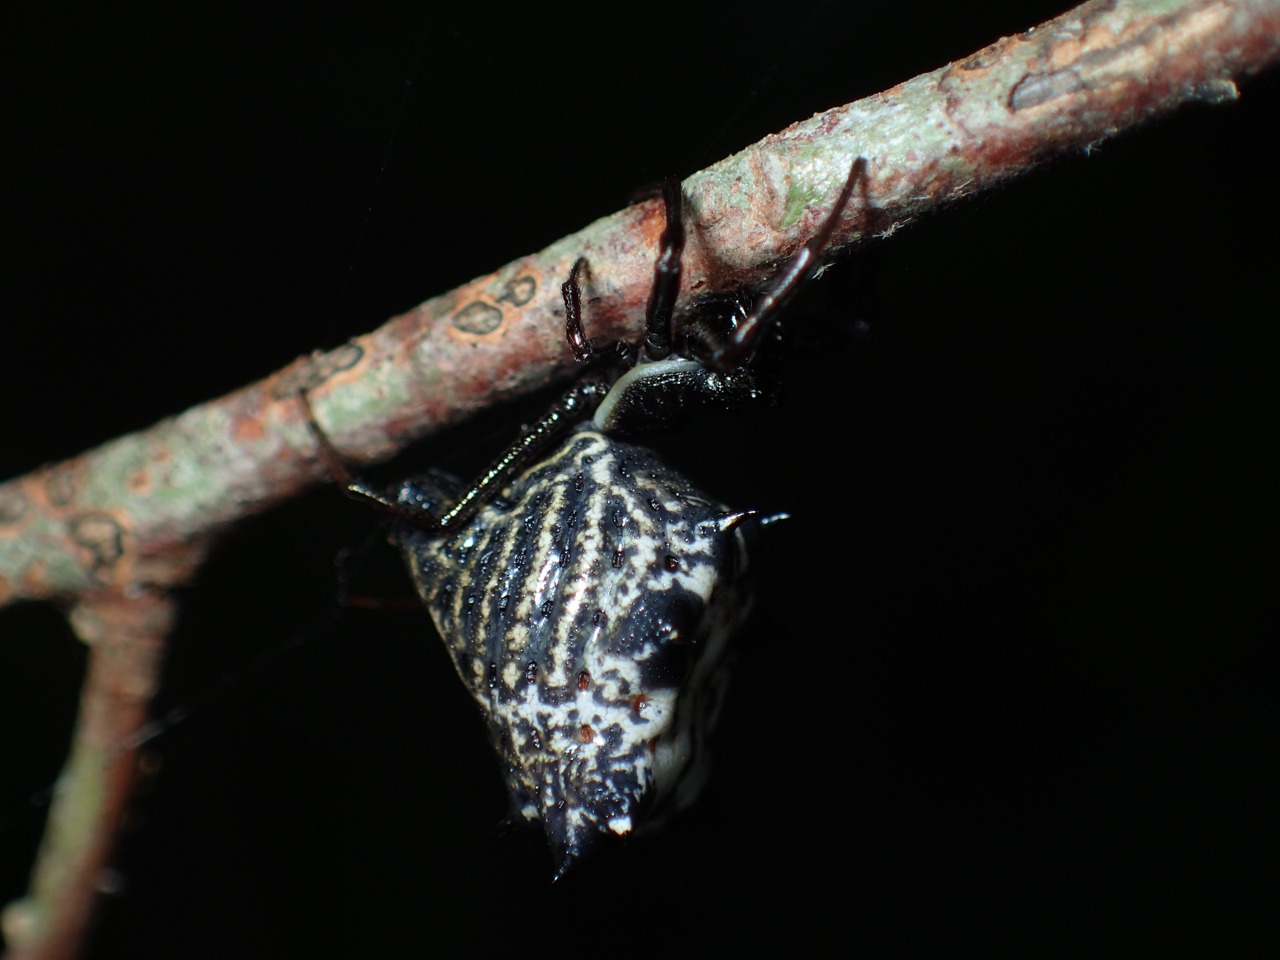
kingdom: Animalia
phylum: Arthropoda
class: Arachnida
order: Araneae
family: Araneidae
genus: Micrathena
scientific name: Micrathena gracilis
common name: Orb weavers
